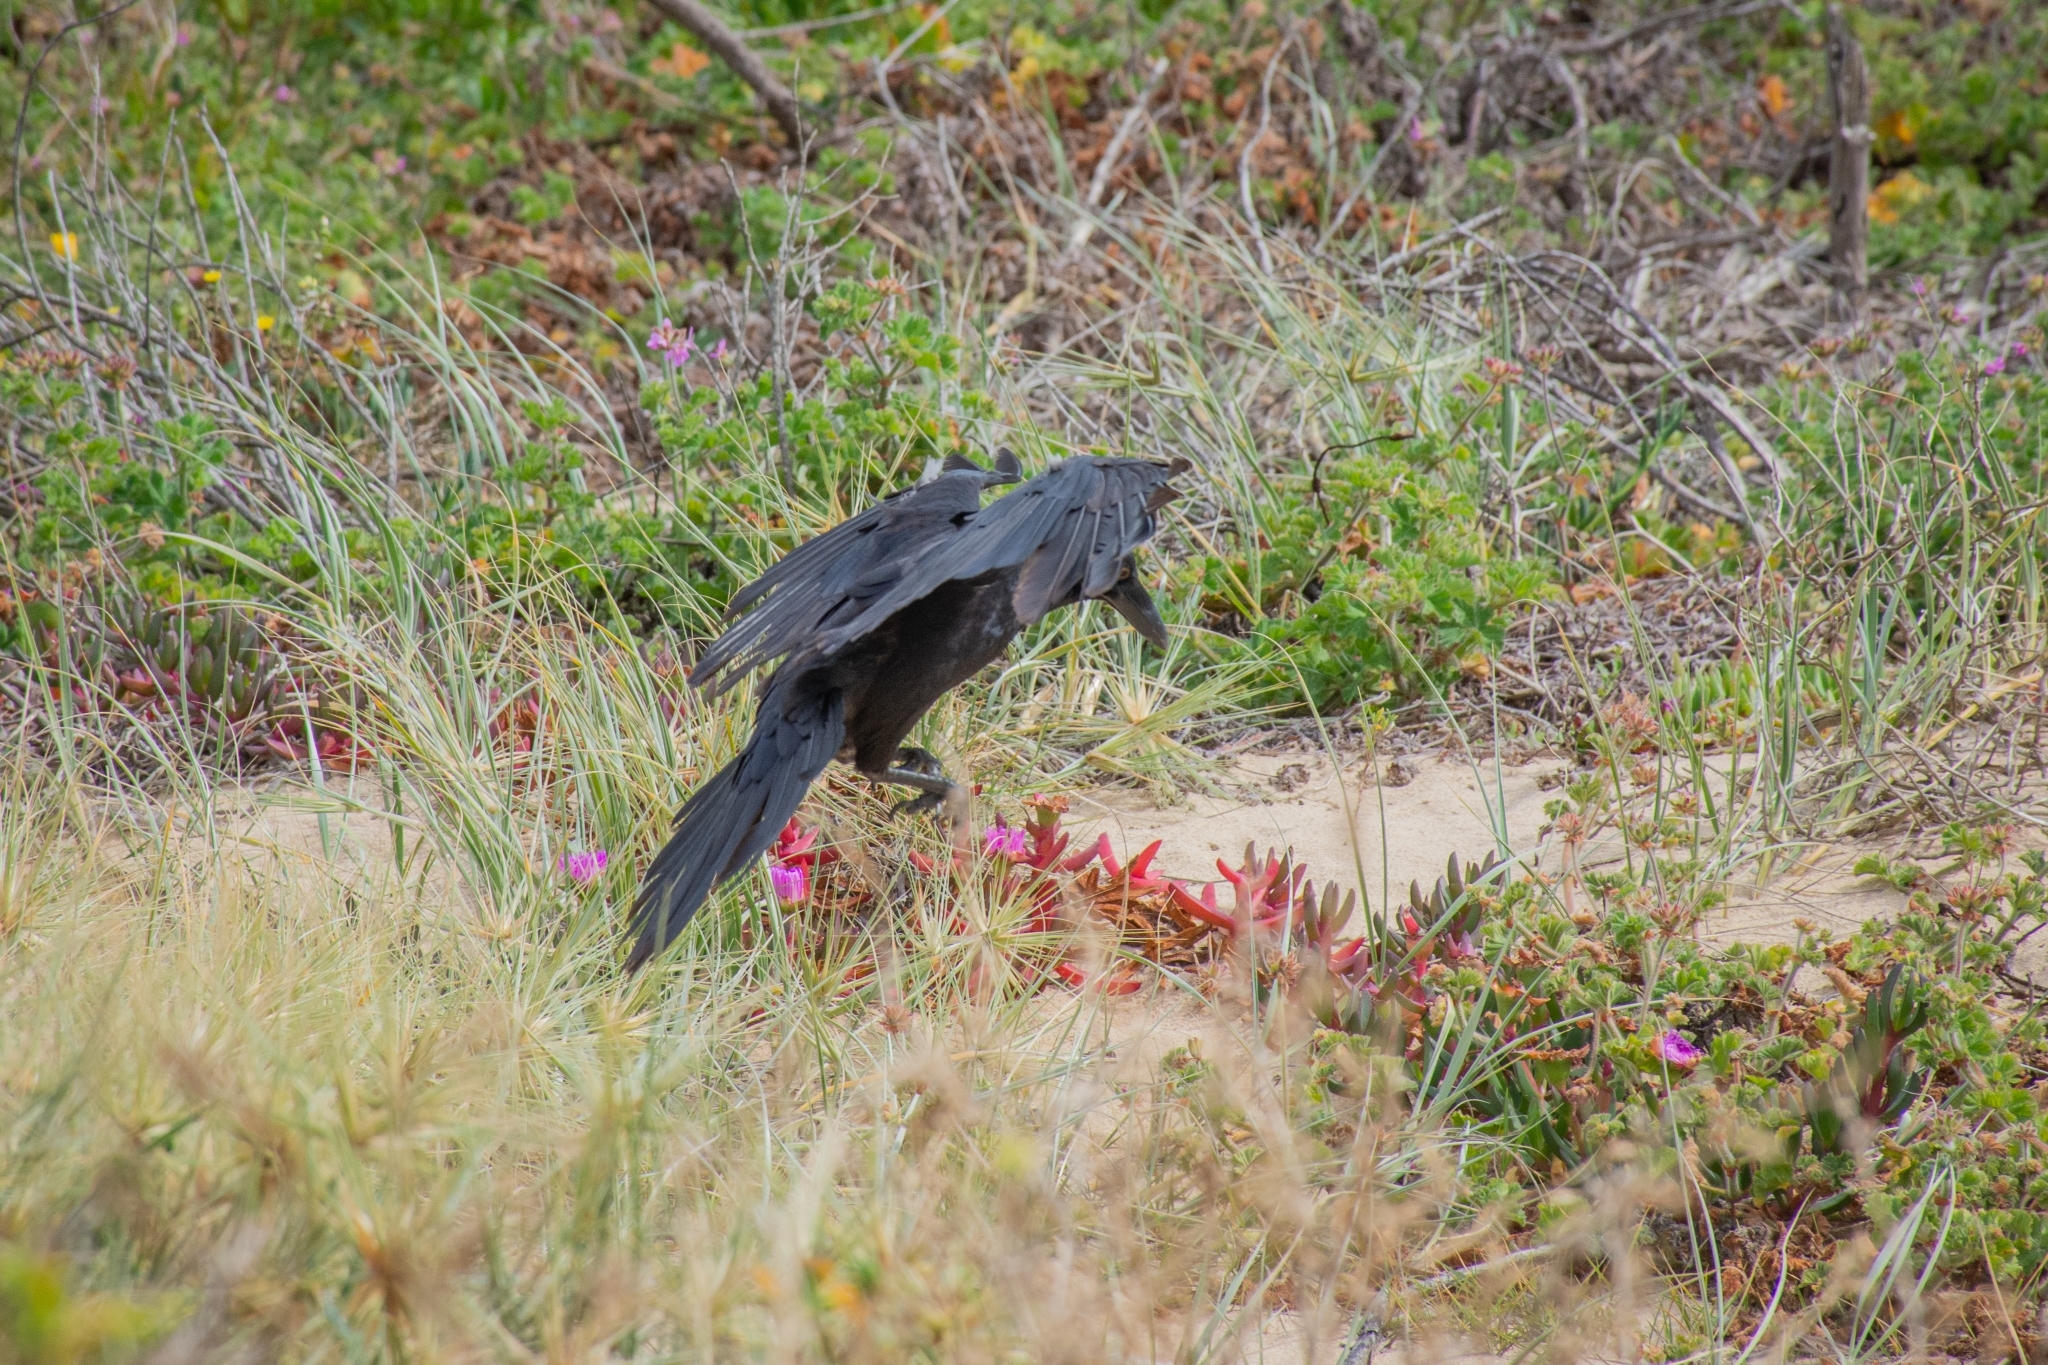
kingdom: Animalia
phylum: Chordata
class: Aves
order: Passeriformes
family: Corvidae
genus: Corvus
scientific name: Corvus coronoides
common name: Australian raven
